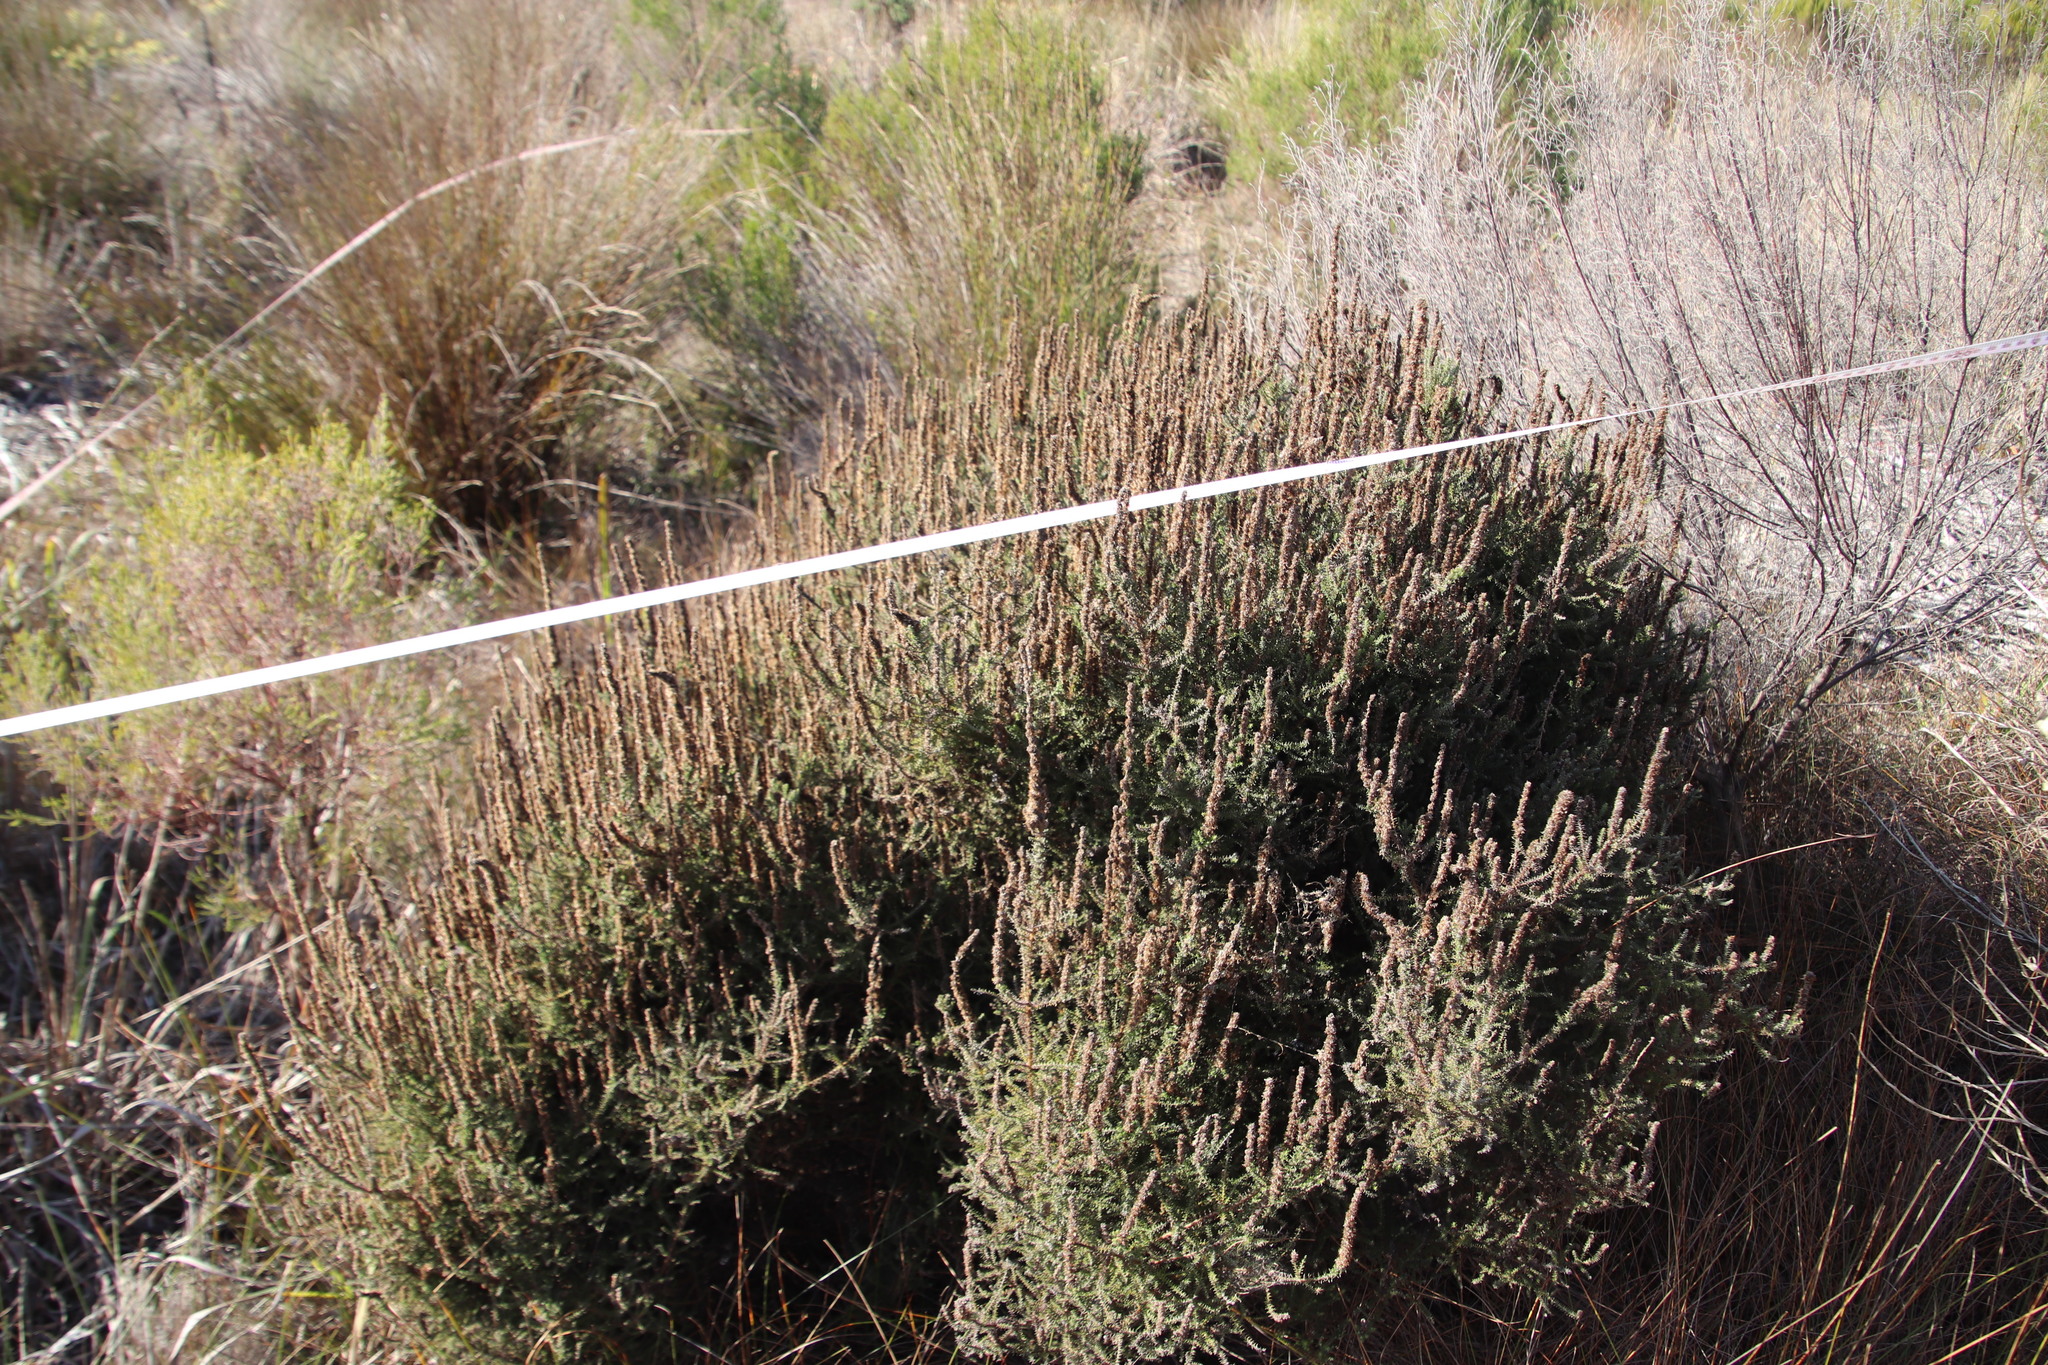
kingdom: Plantae
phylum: Tracheophyta
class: Magnoliopsida
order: Asterales
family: Asteraceae
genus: Seriphium
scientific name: Seriphium cinereum
